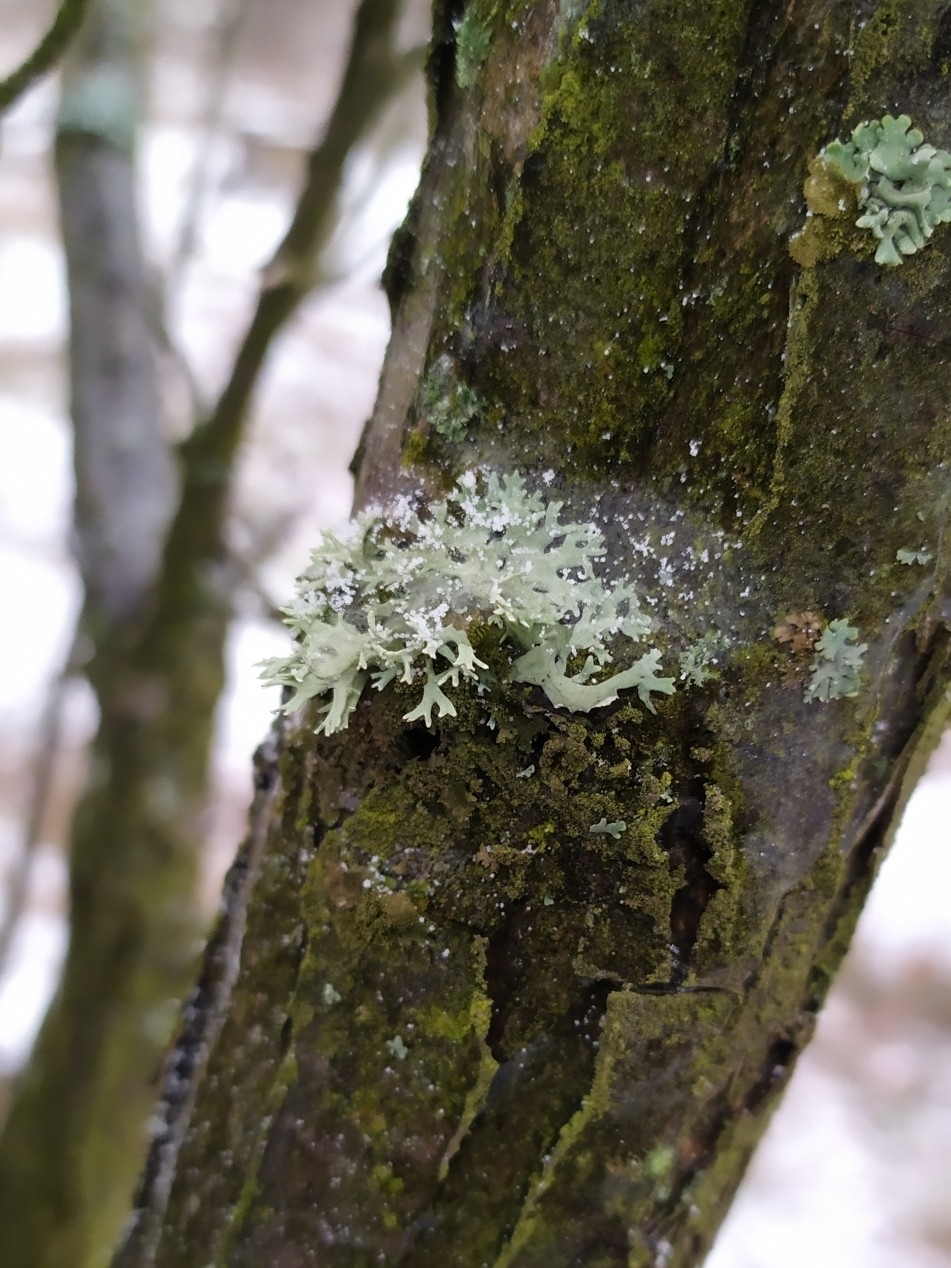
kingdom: Fungi
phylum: Ascomycota
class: Lecanoromycetes
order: Lecanorales
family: Parmeliaceae
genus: Evernia
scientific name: Evernia prunastri
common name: Oak moss
